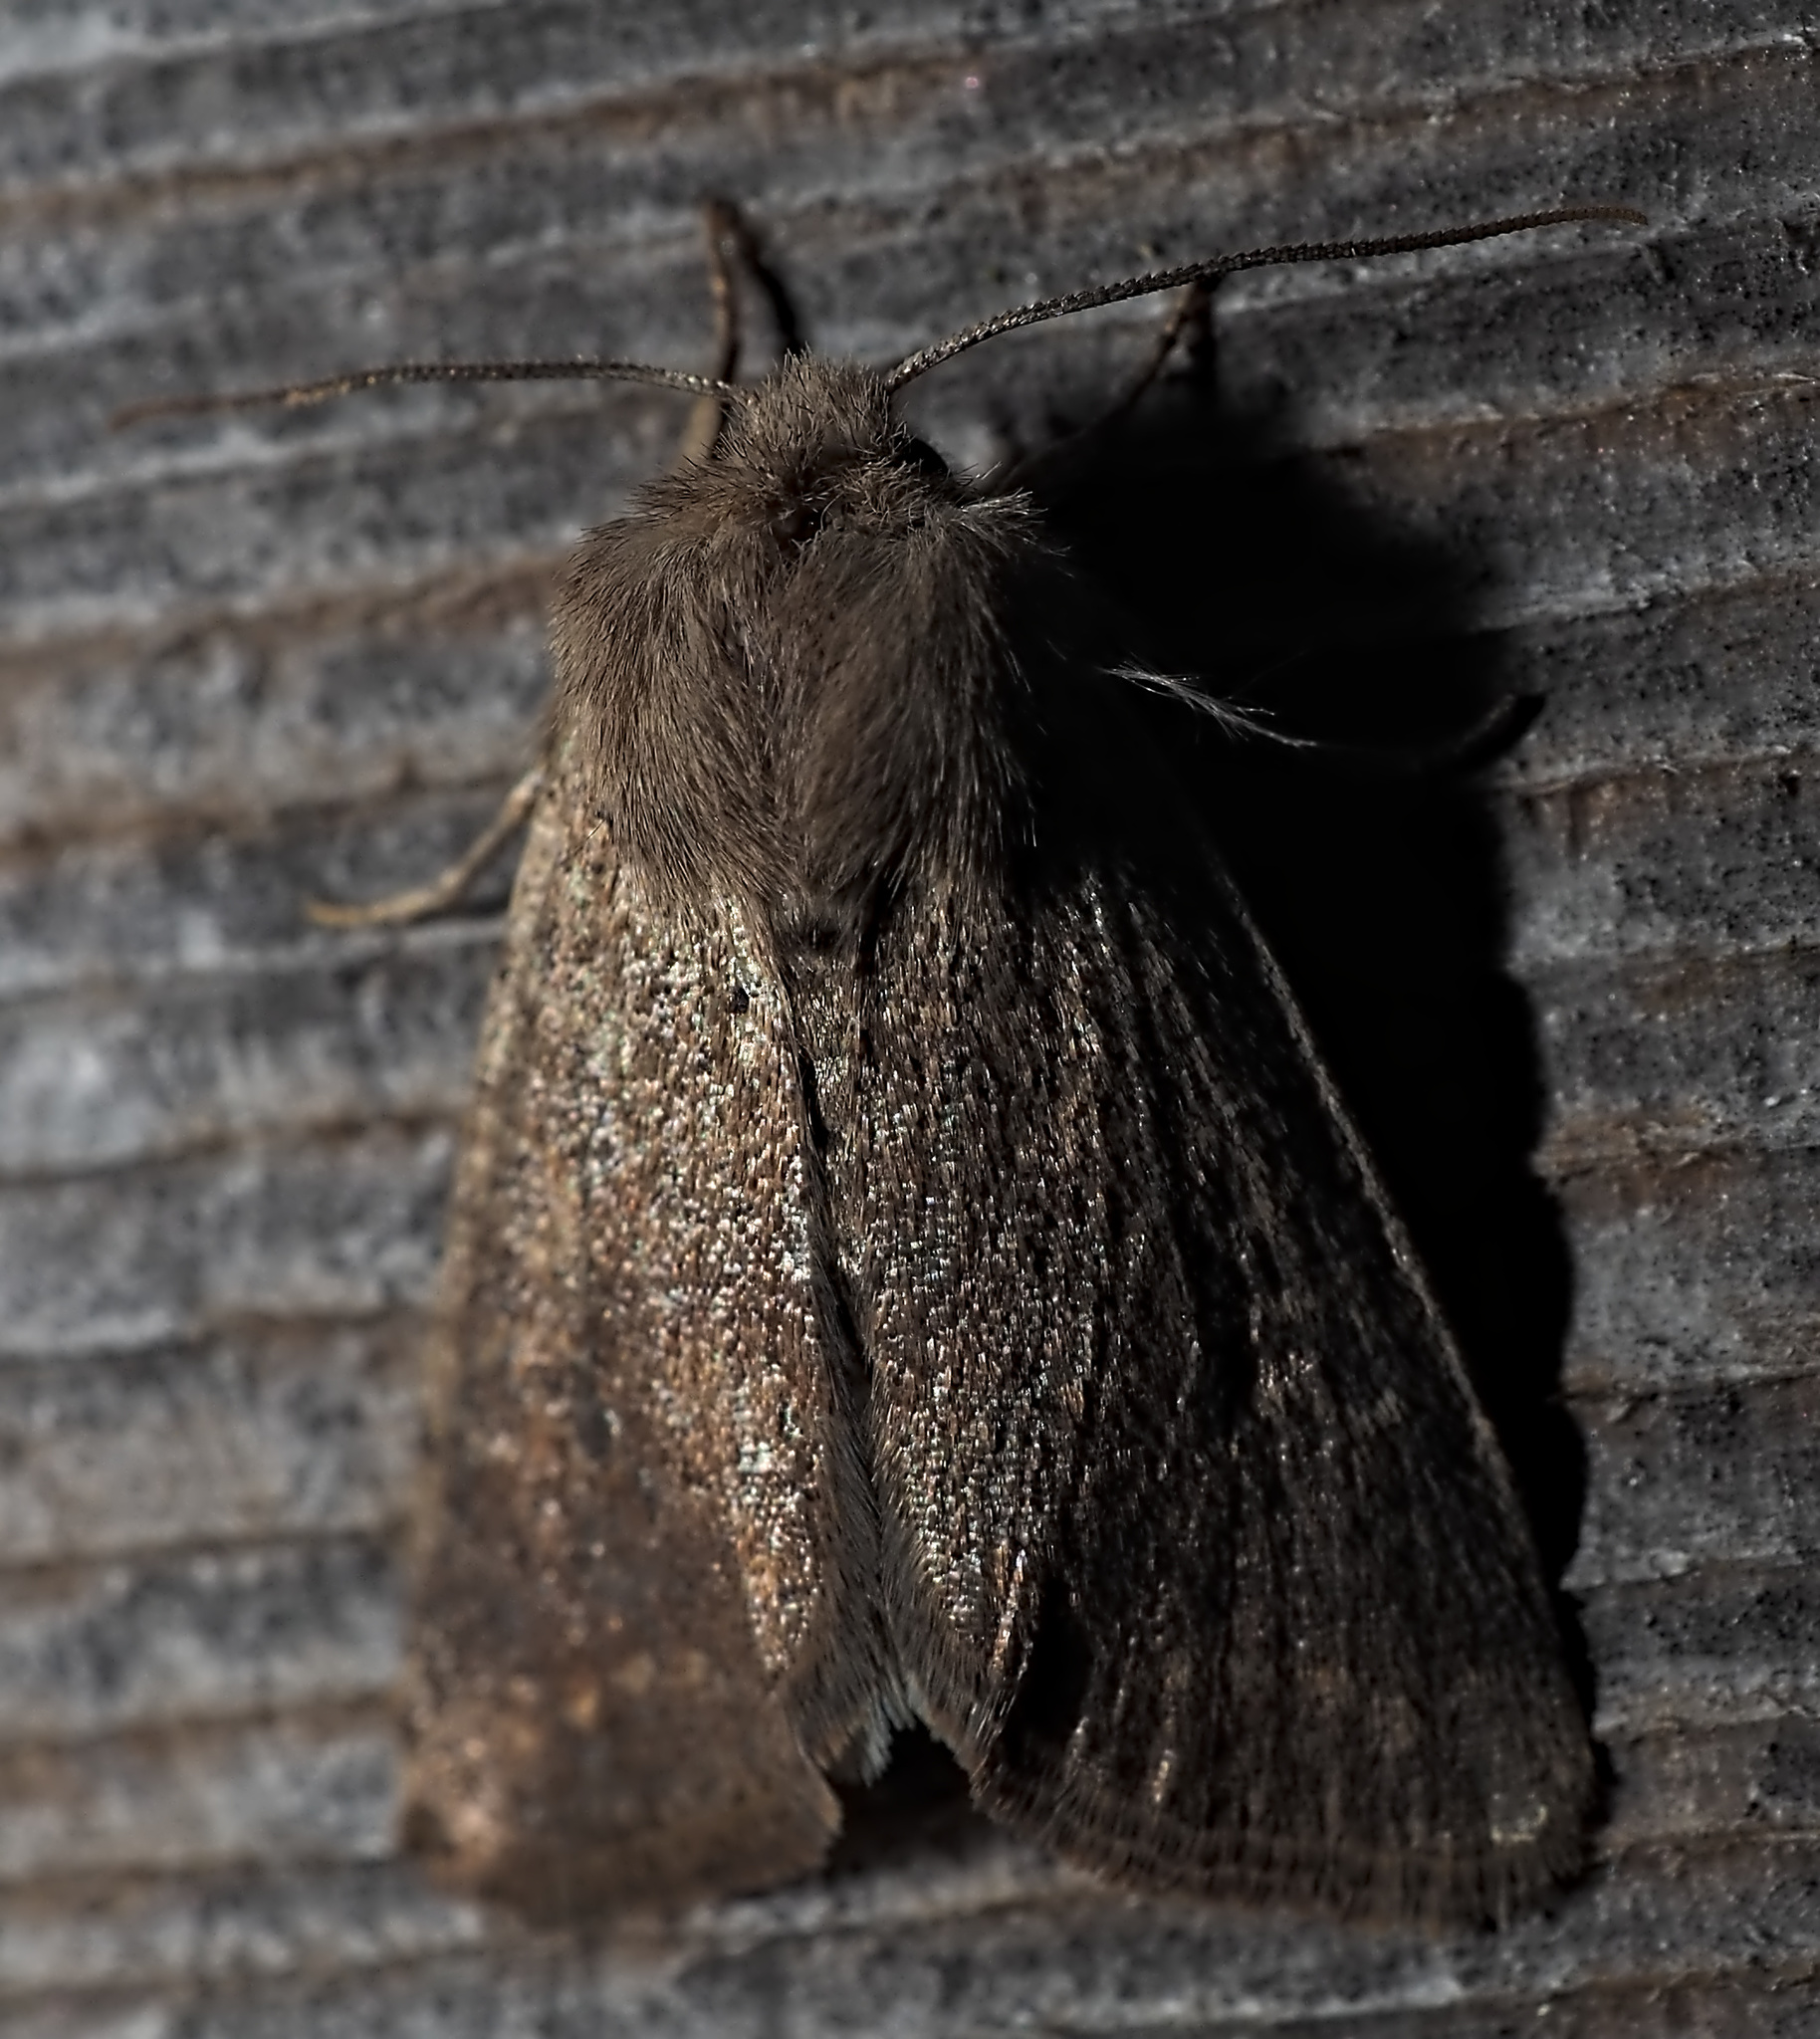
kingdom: Animalia
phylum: Arthropoda
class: Insecta
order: Lepidoptera
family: Noctuidae
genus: Orthosia
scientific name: Orthosia cruda
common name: Small quaker
